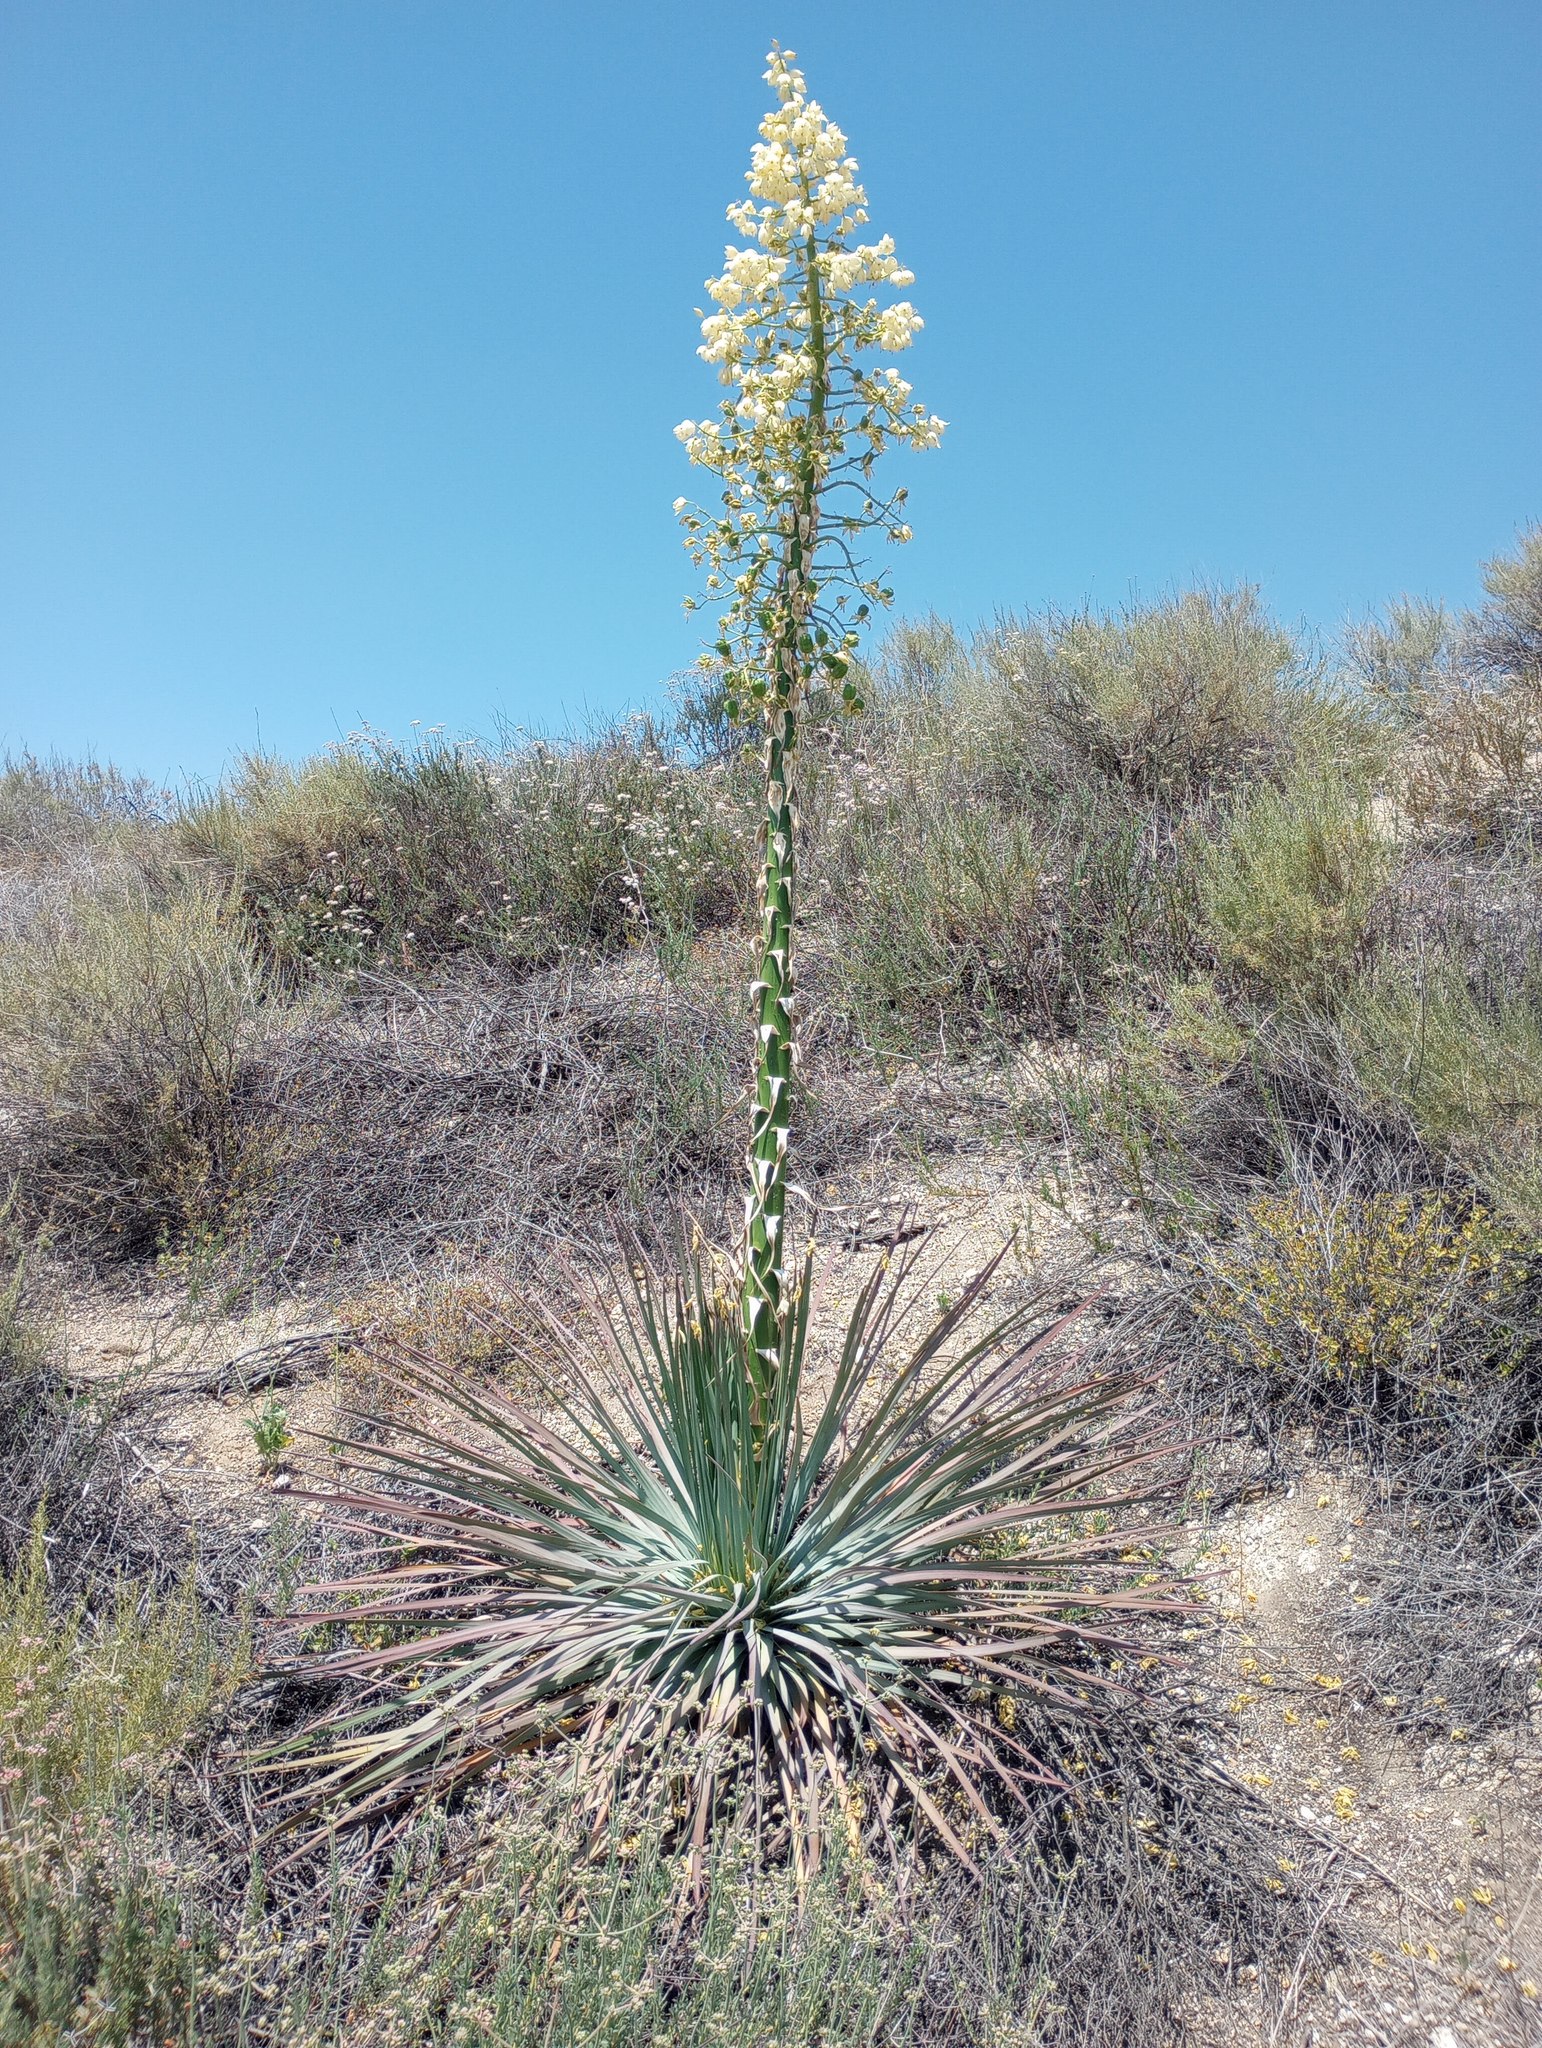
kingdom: Plantae
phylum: Tracheophyta
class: Liliopsida
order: Asparagales
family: Asparagaceae
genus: Hesperoyucca
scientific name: Hesperoyucca whipplei
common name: Our lord's-candle
